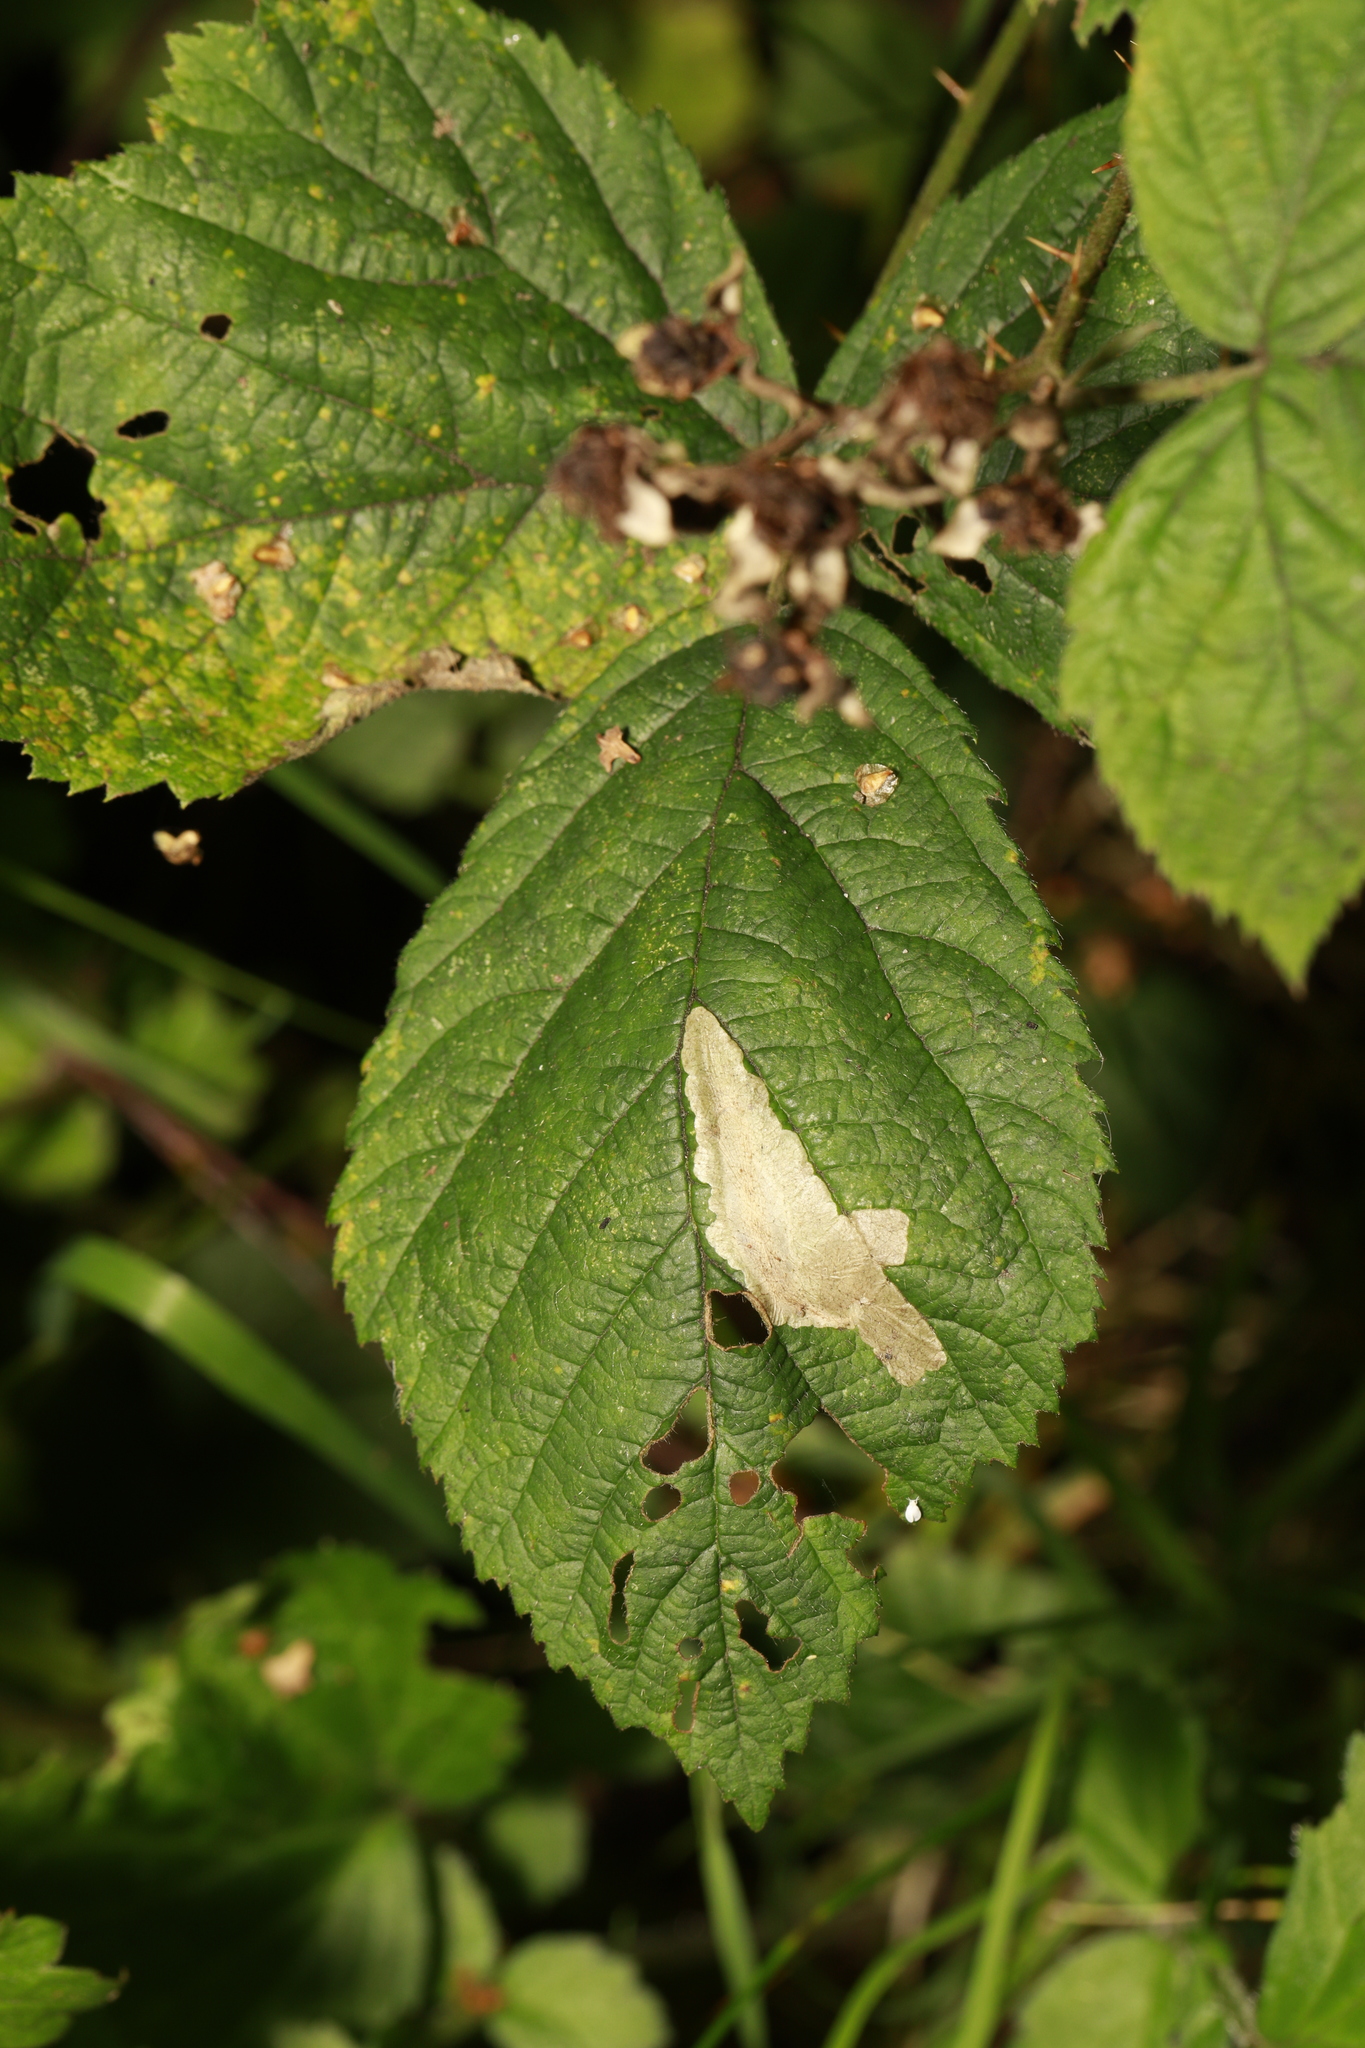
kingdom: Animalia
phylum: Arthropoda
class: Insecta
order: Lepidoptera
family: Tischeriidae
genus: Coptotriche
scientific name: Coptotriche marginea
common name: Bordered carl
